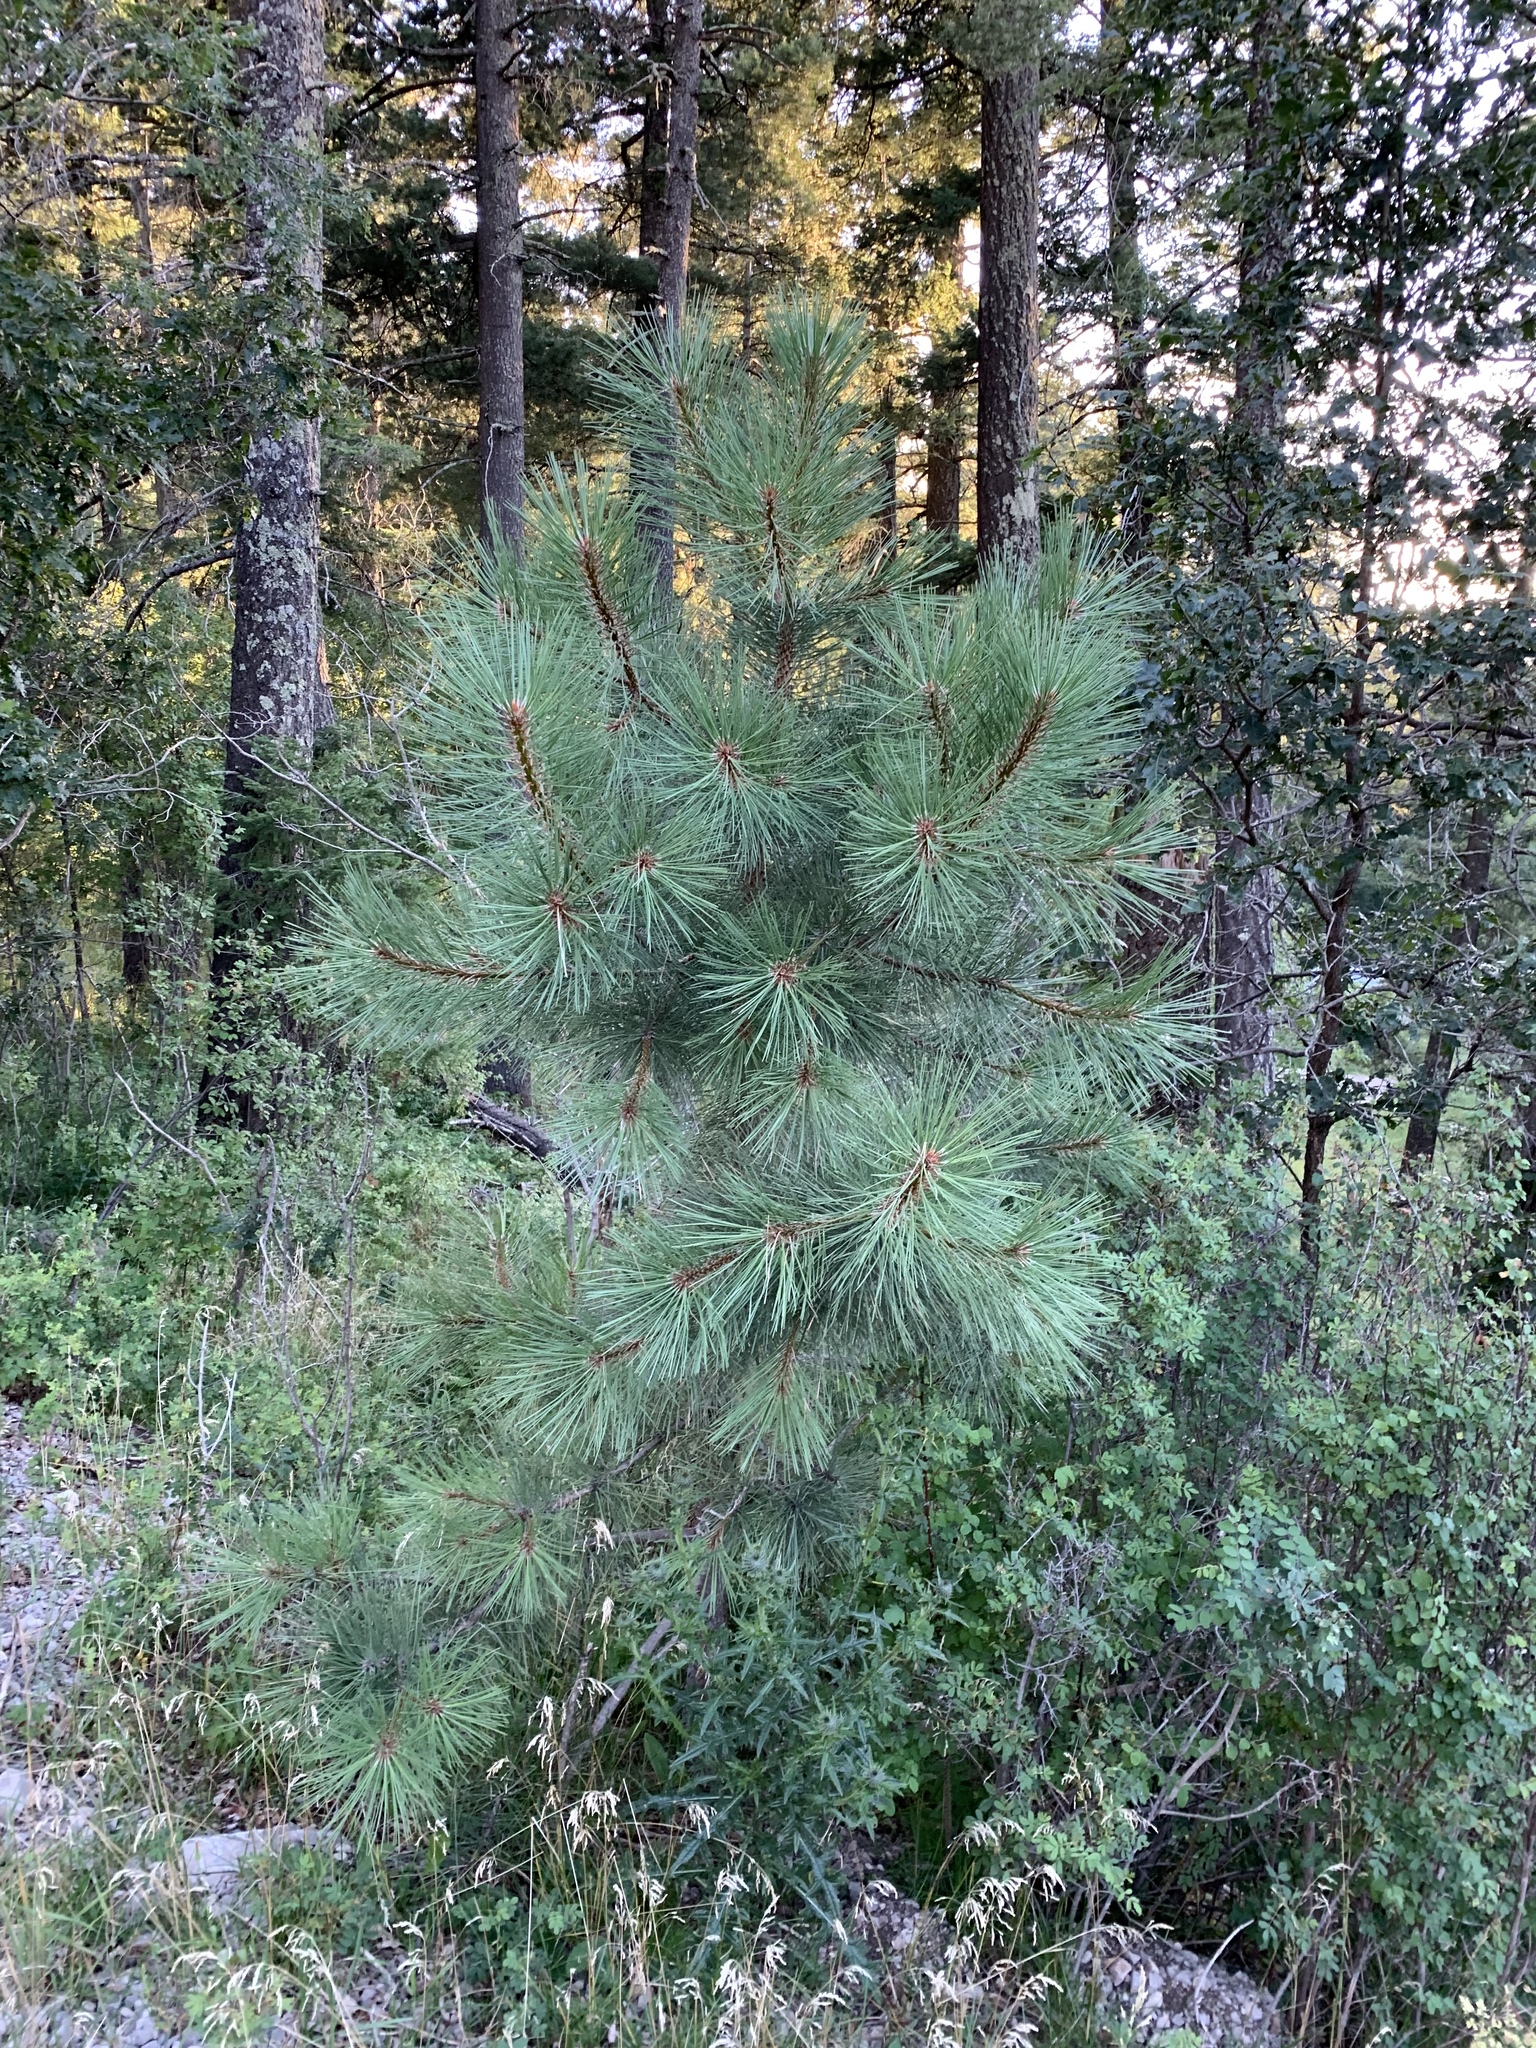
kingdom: Plantae
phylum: Tracheophyta
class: Pinopsida
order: Pinales
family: Pinaceae
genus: Pinus
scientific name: Pinus ponderosa
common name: Western yellow-pine
